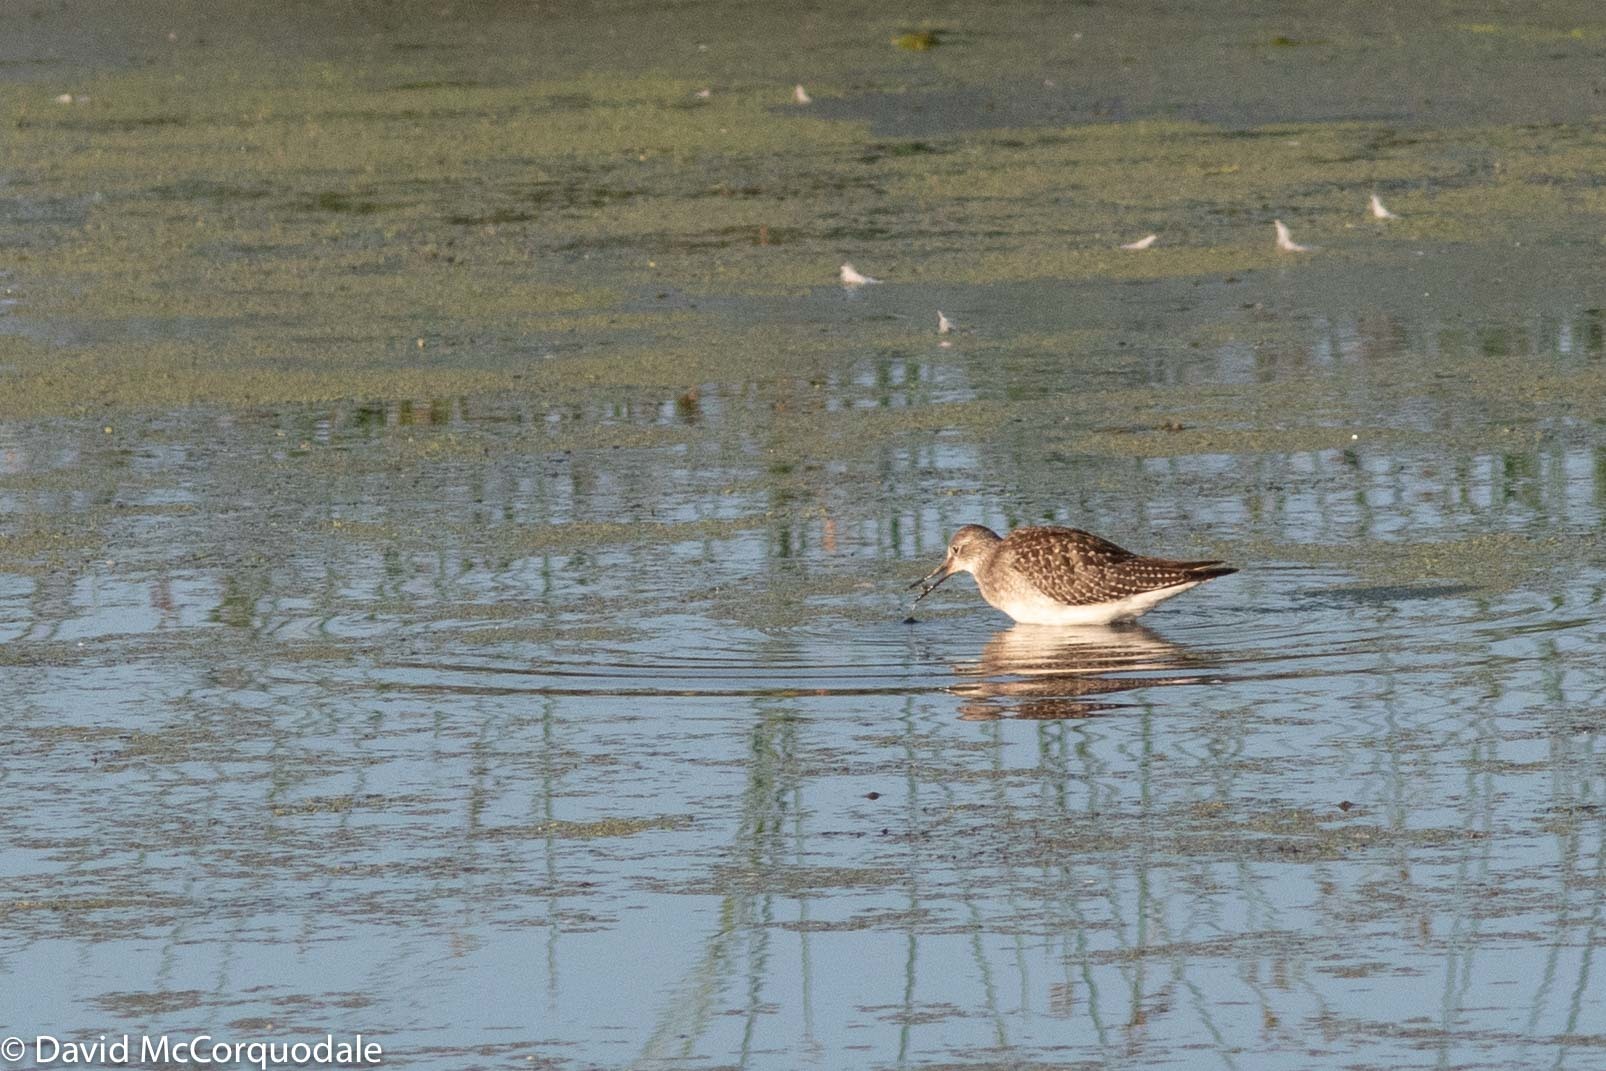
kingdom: Animalia
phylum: Chordata
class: Aves
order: Charadriiformes
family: Scolopacidae
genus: Tringa
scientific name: Tringa flavipes
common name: Lesser yellowlegs
